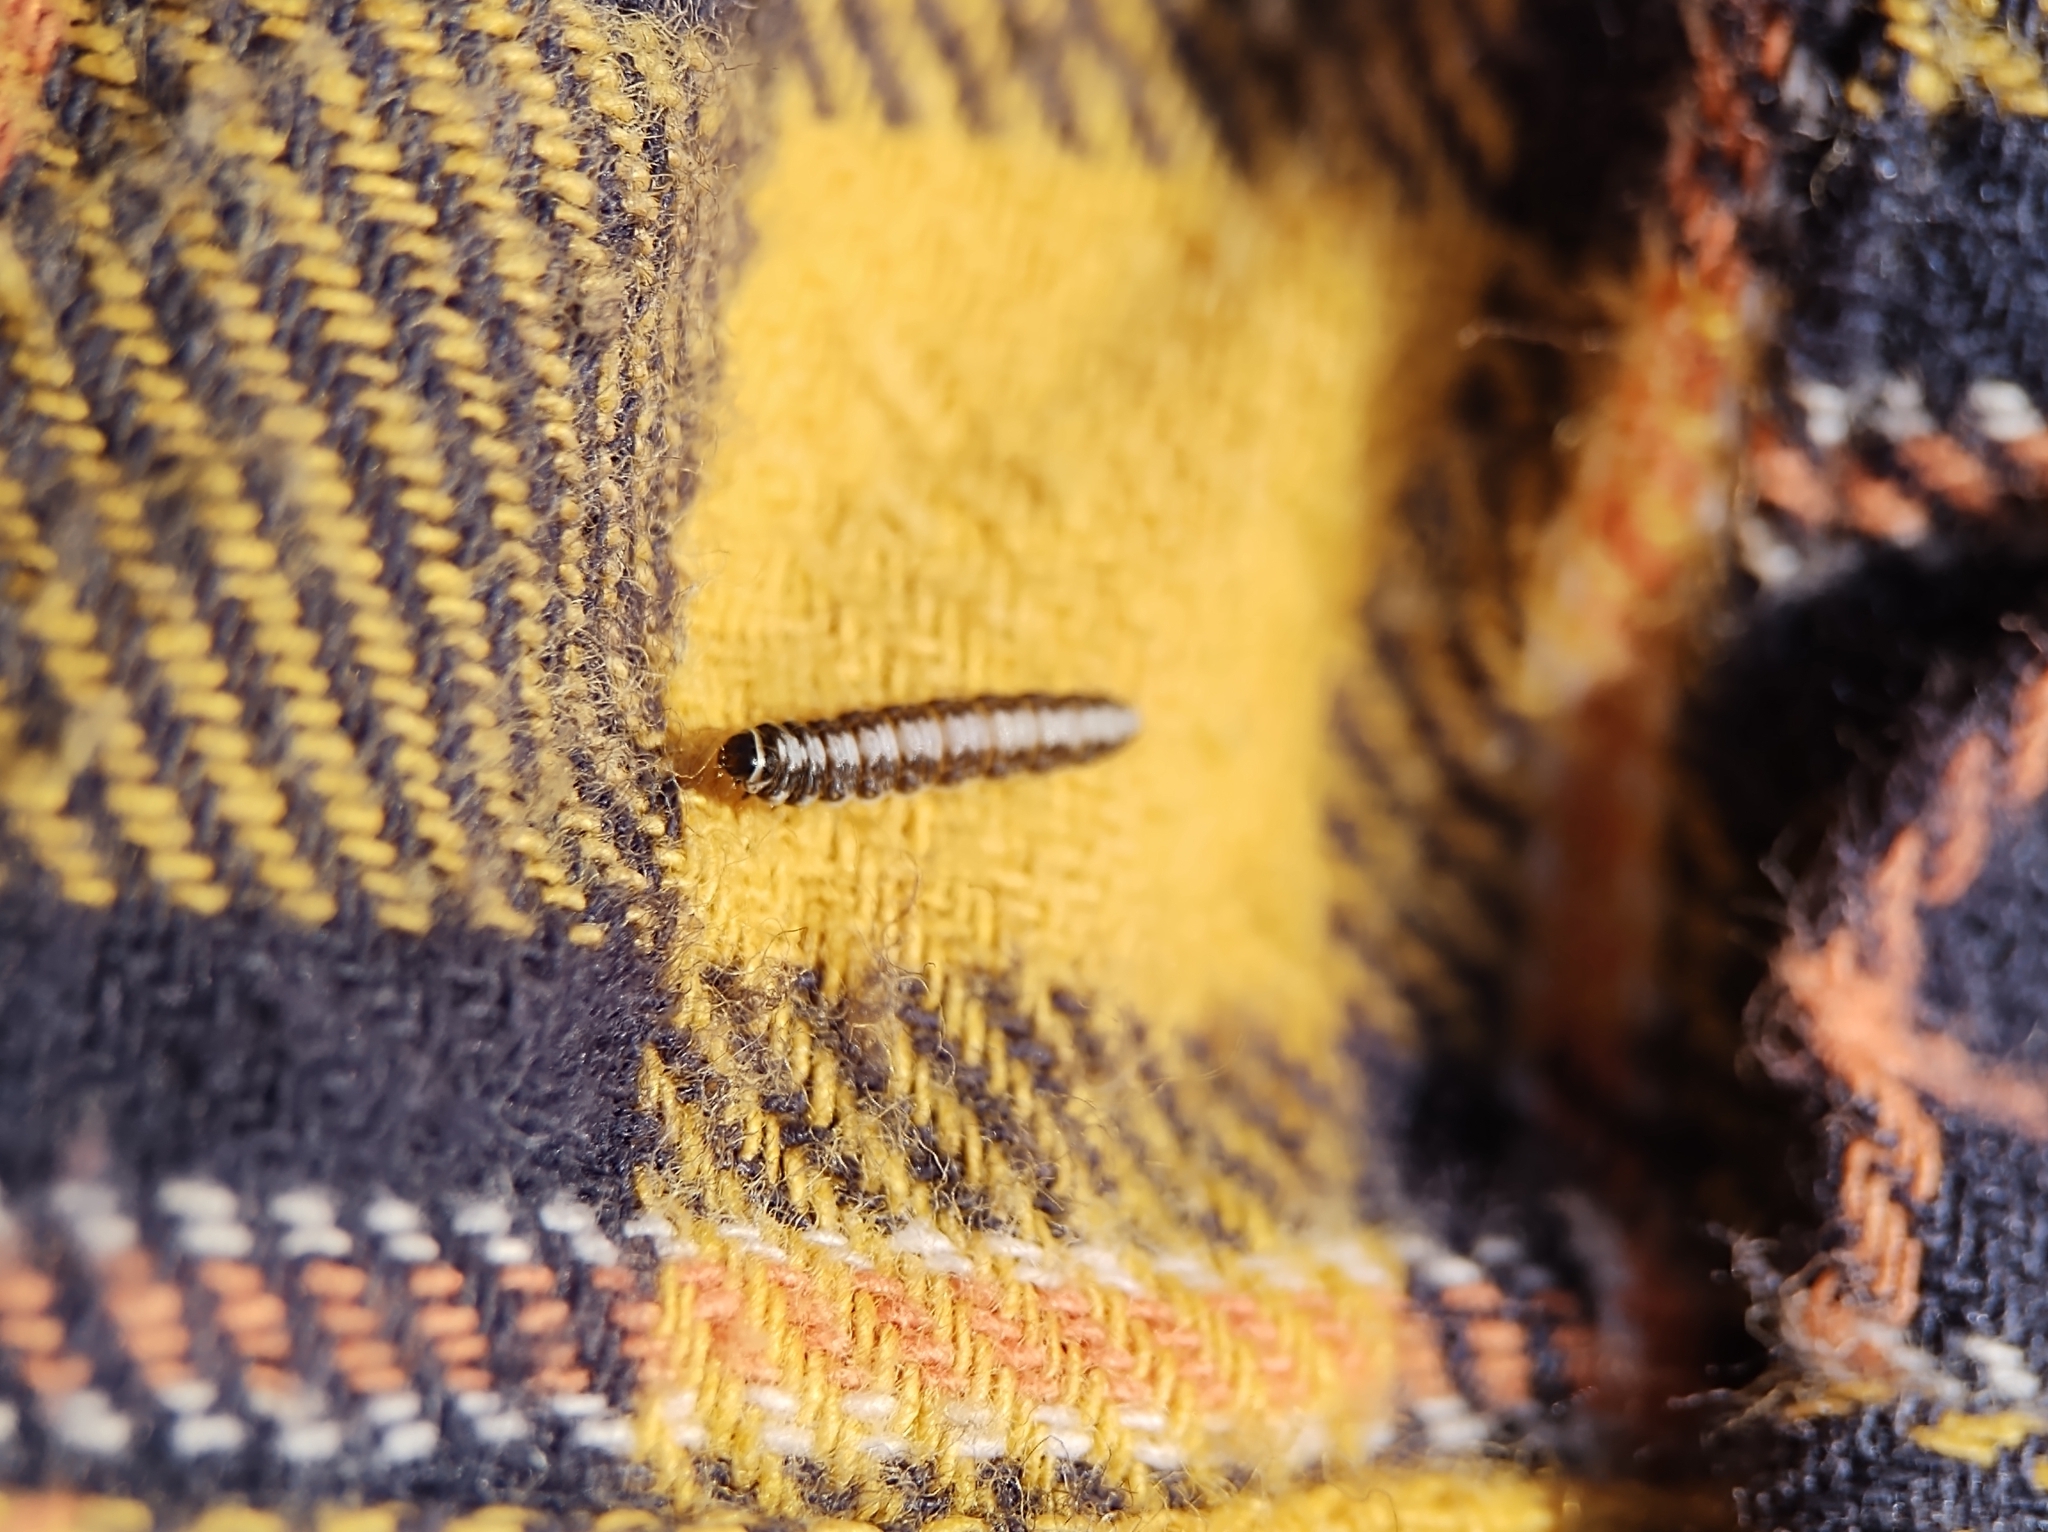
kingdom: Animalia
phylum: Arthropoda
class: Insecta
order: Lepidoptera
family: Batrachedridae
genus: Batrachedra
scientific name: Batrachedra praeangusta
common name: Poplar cosmet
